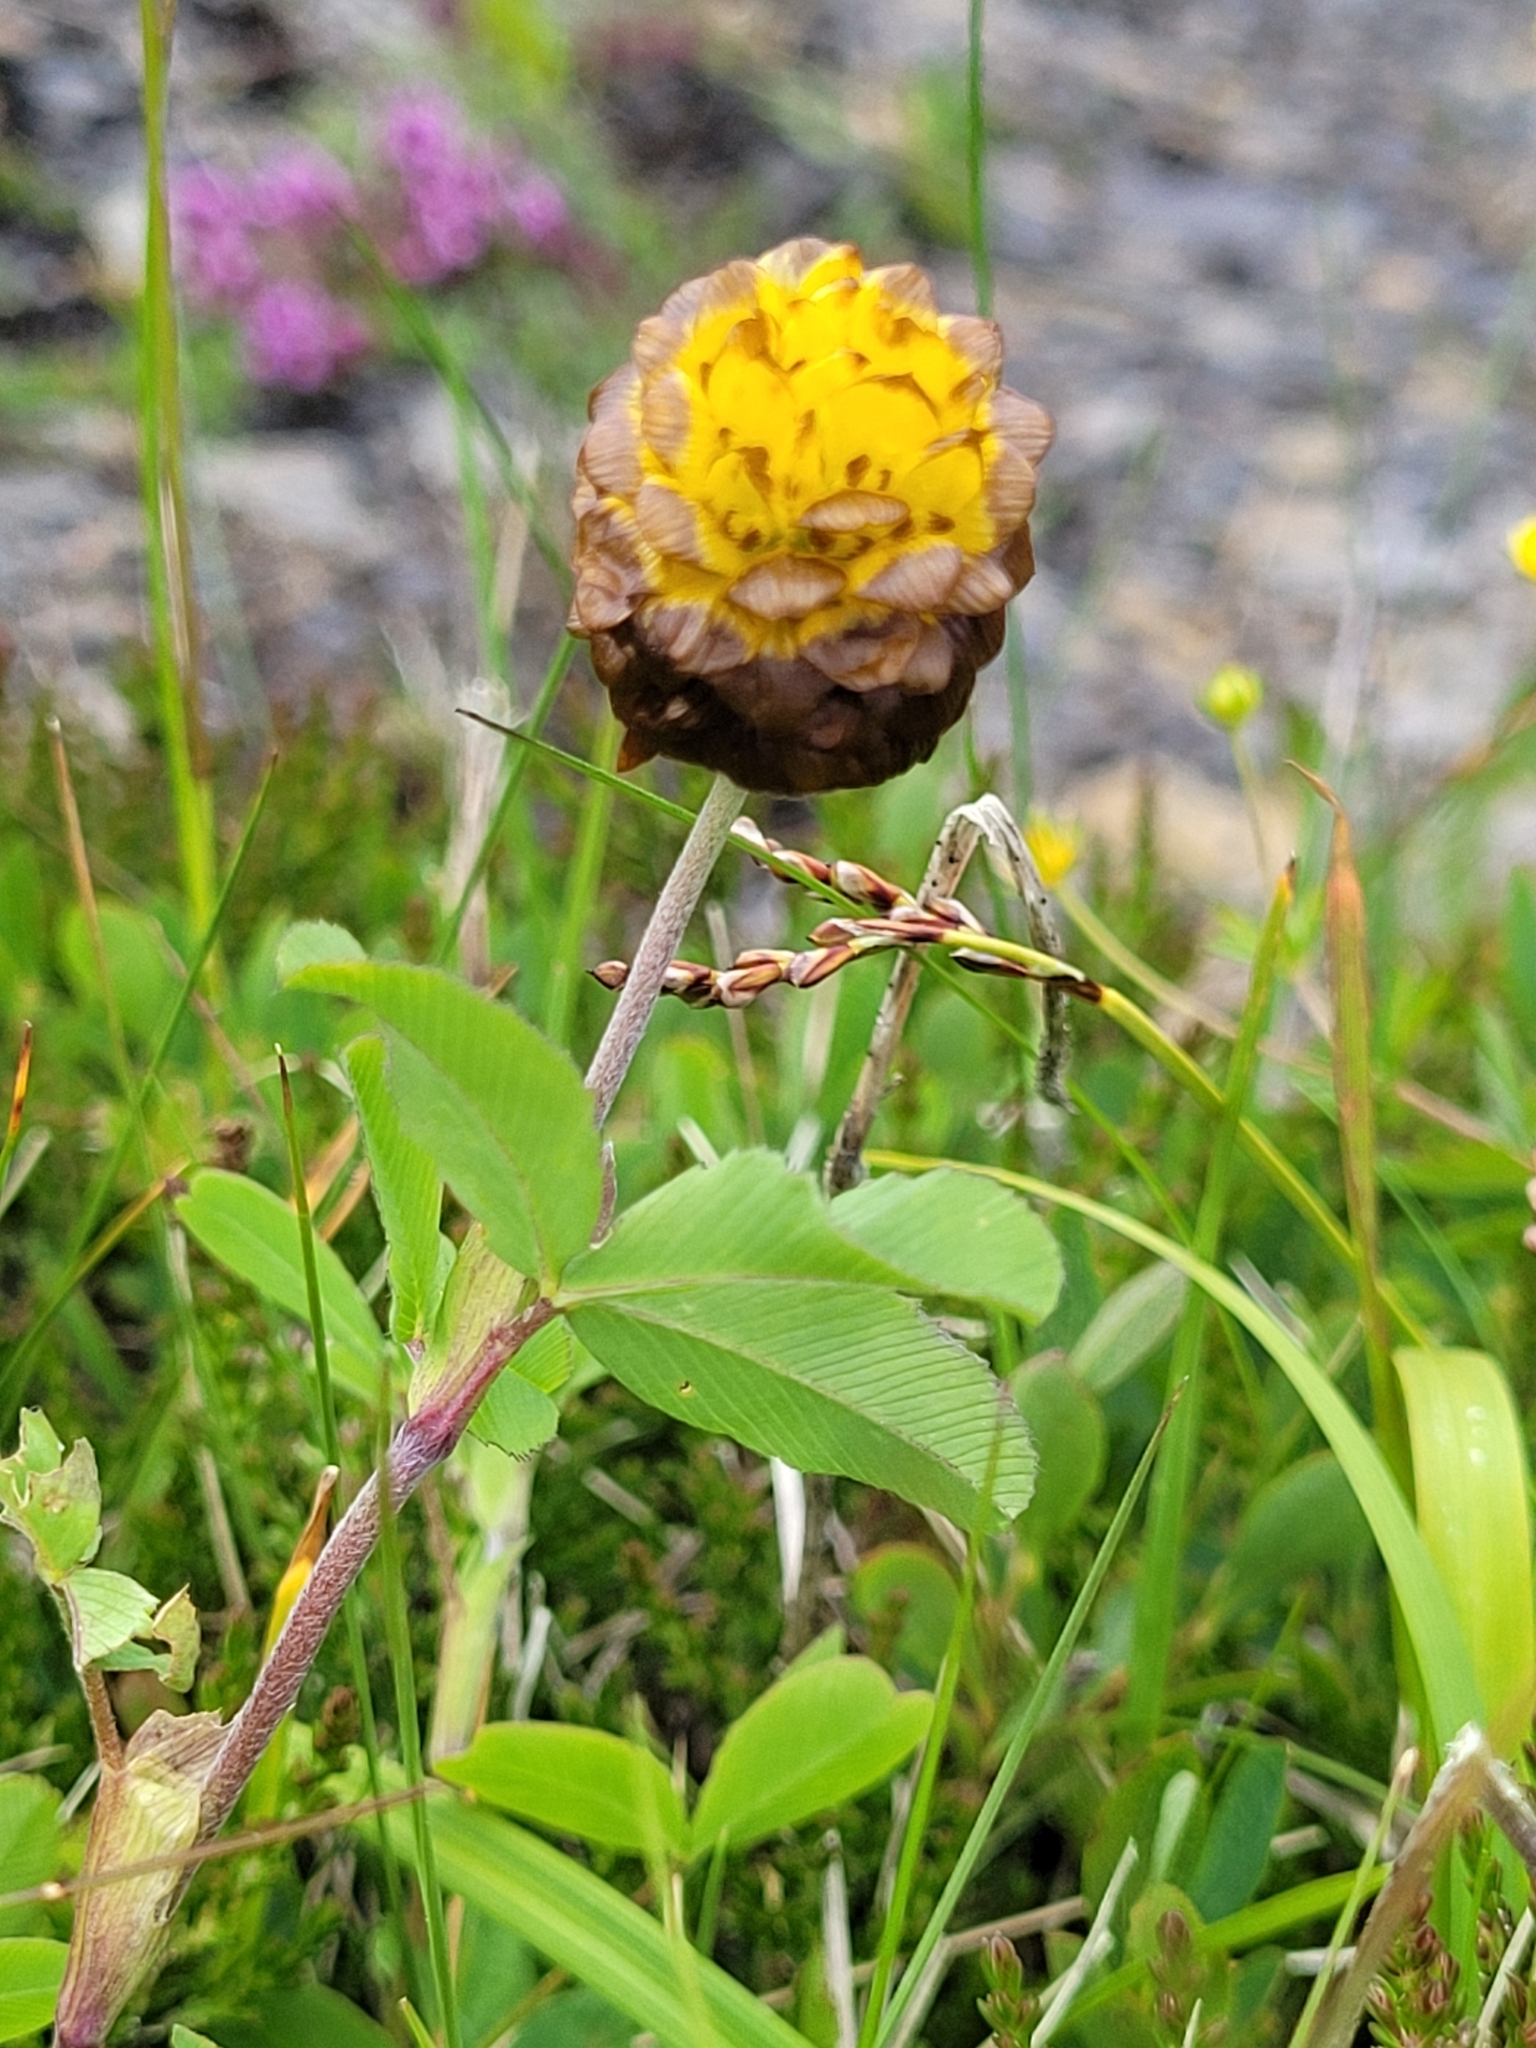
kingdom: Plantae
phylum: Tracheophyta
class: Magnoliopsida
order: Fabales
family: Fabaceae
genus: Trifolium
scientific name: Trifolium badium
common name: Brown clover
